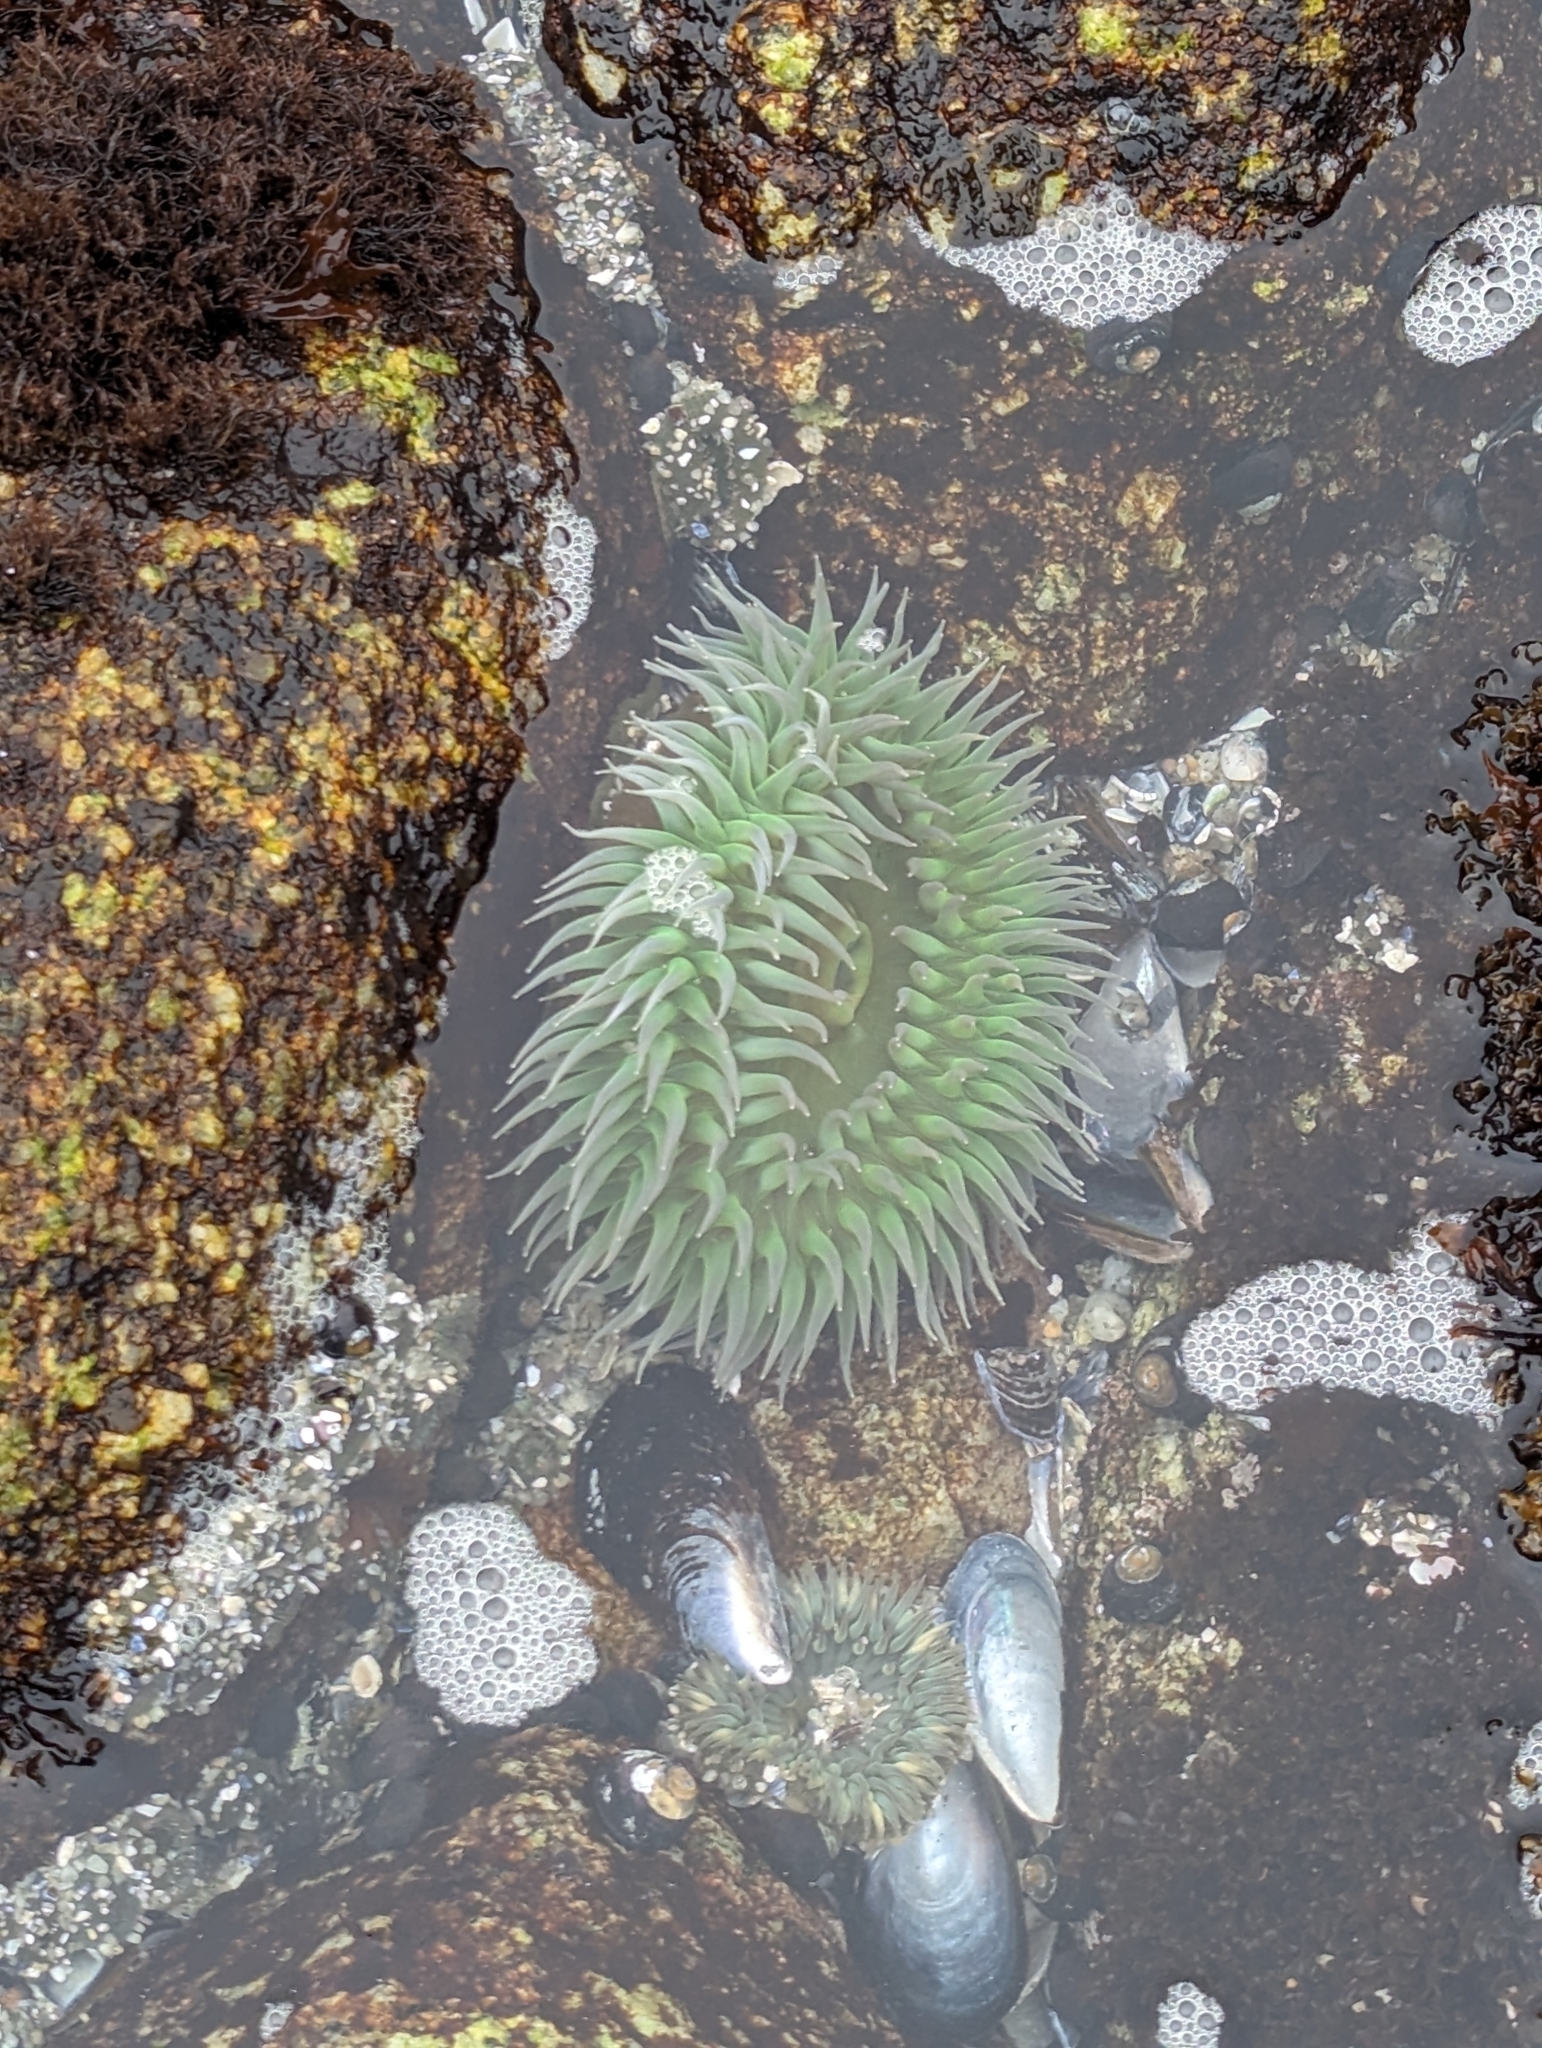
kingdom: Animalia
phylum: Cnidaria
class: Anthozoa
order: Actiniaria
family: Actiniidae
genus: Anthopleura
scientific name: Anthopleura xanthogrammica
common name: Giant green anemone
